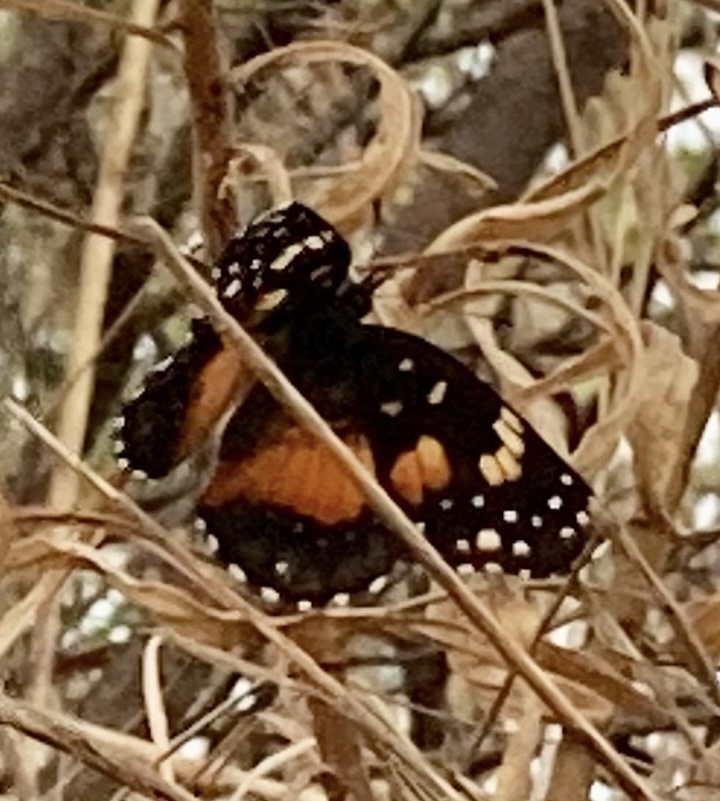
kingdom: Animalia
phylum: Arthropoda
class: Insecta
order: Lepidoptera
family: Nymphalidae
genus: Chlosyne
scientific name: Chlosyne lacinia
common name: Bordered patch
